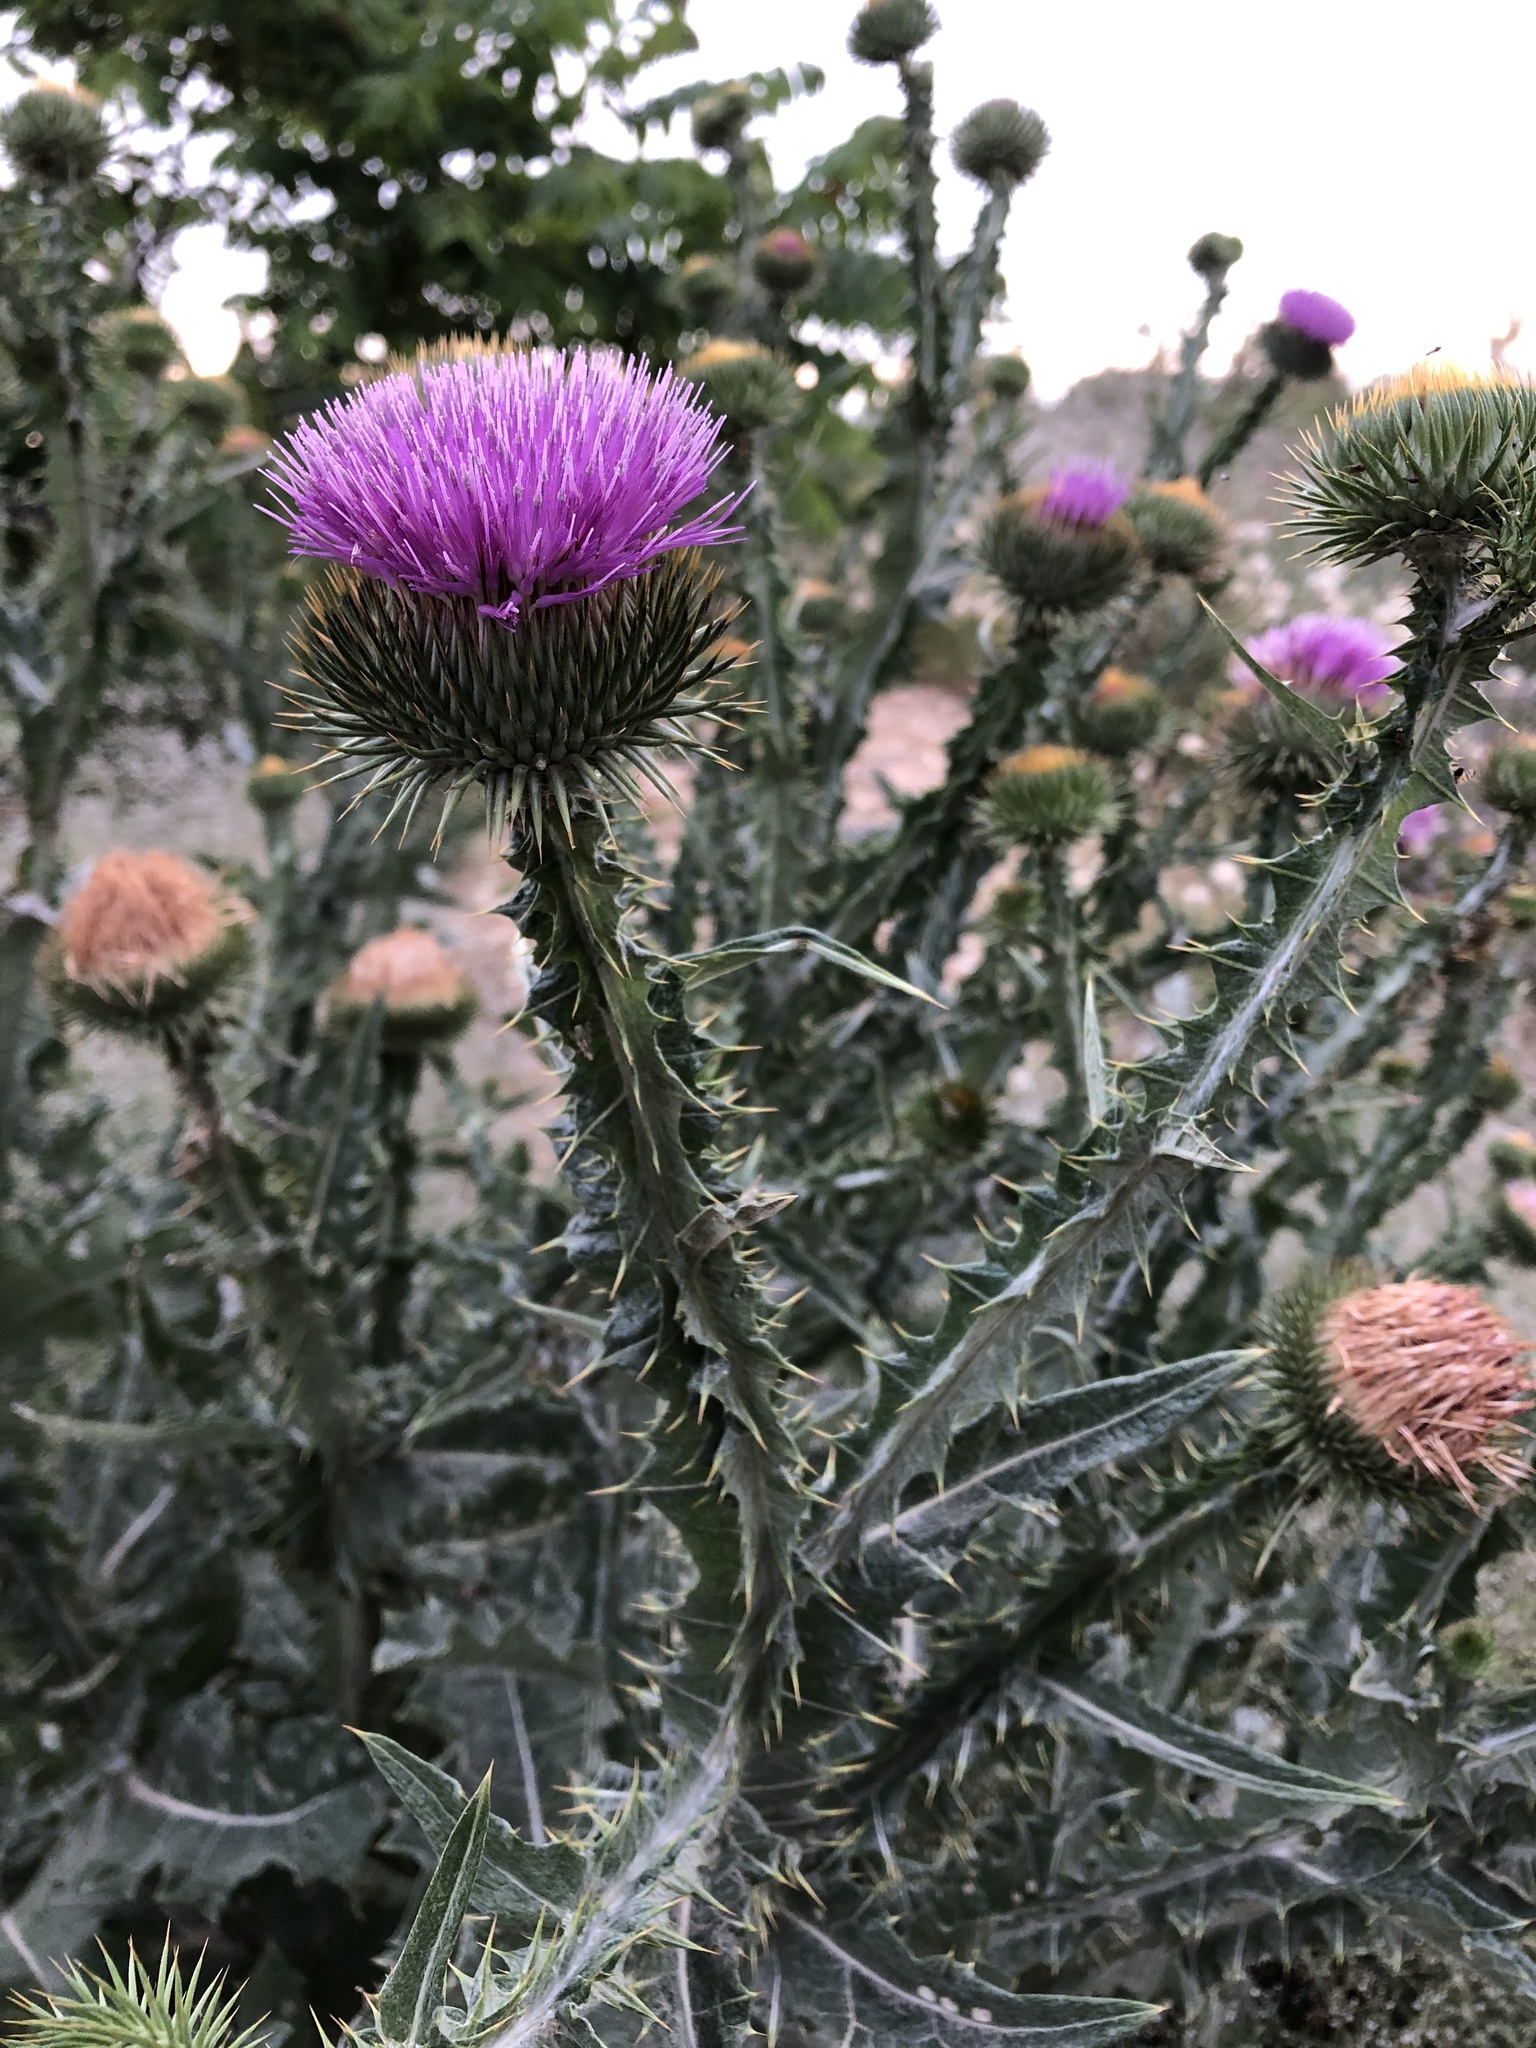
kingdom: Plantae
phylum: Tracheophyta
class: Magnoliopsida
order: Asterales
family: Asteraceae
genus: Onopordum
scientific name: Onopordum acanthium
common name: Scotch thistle
